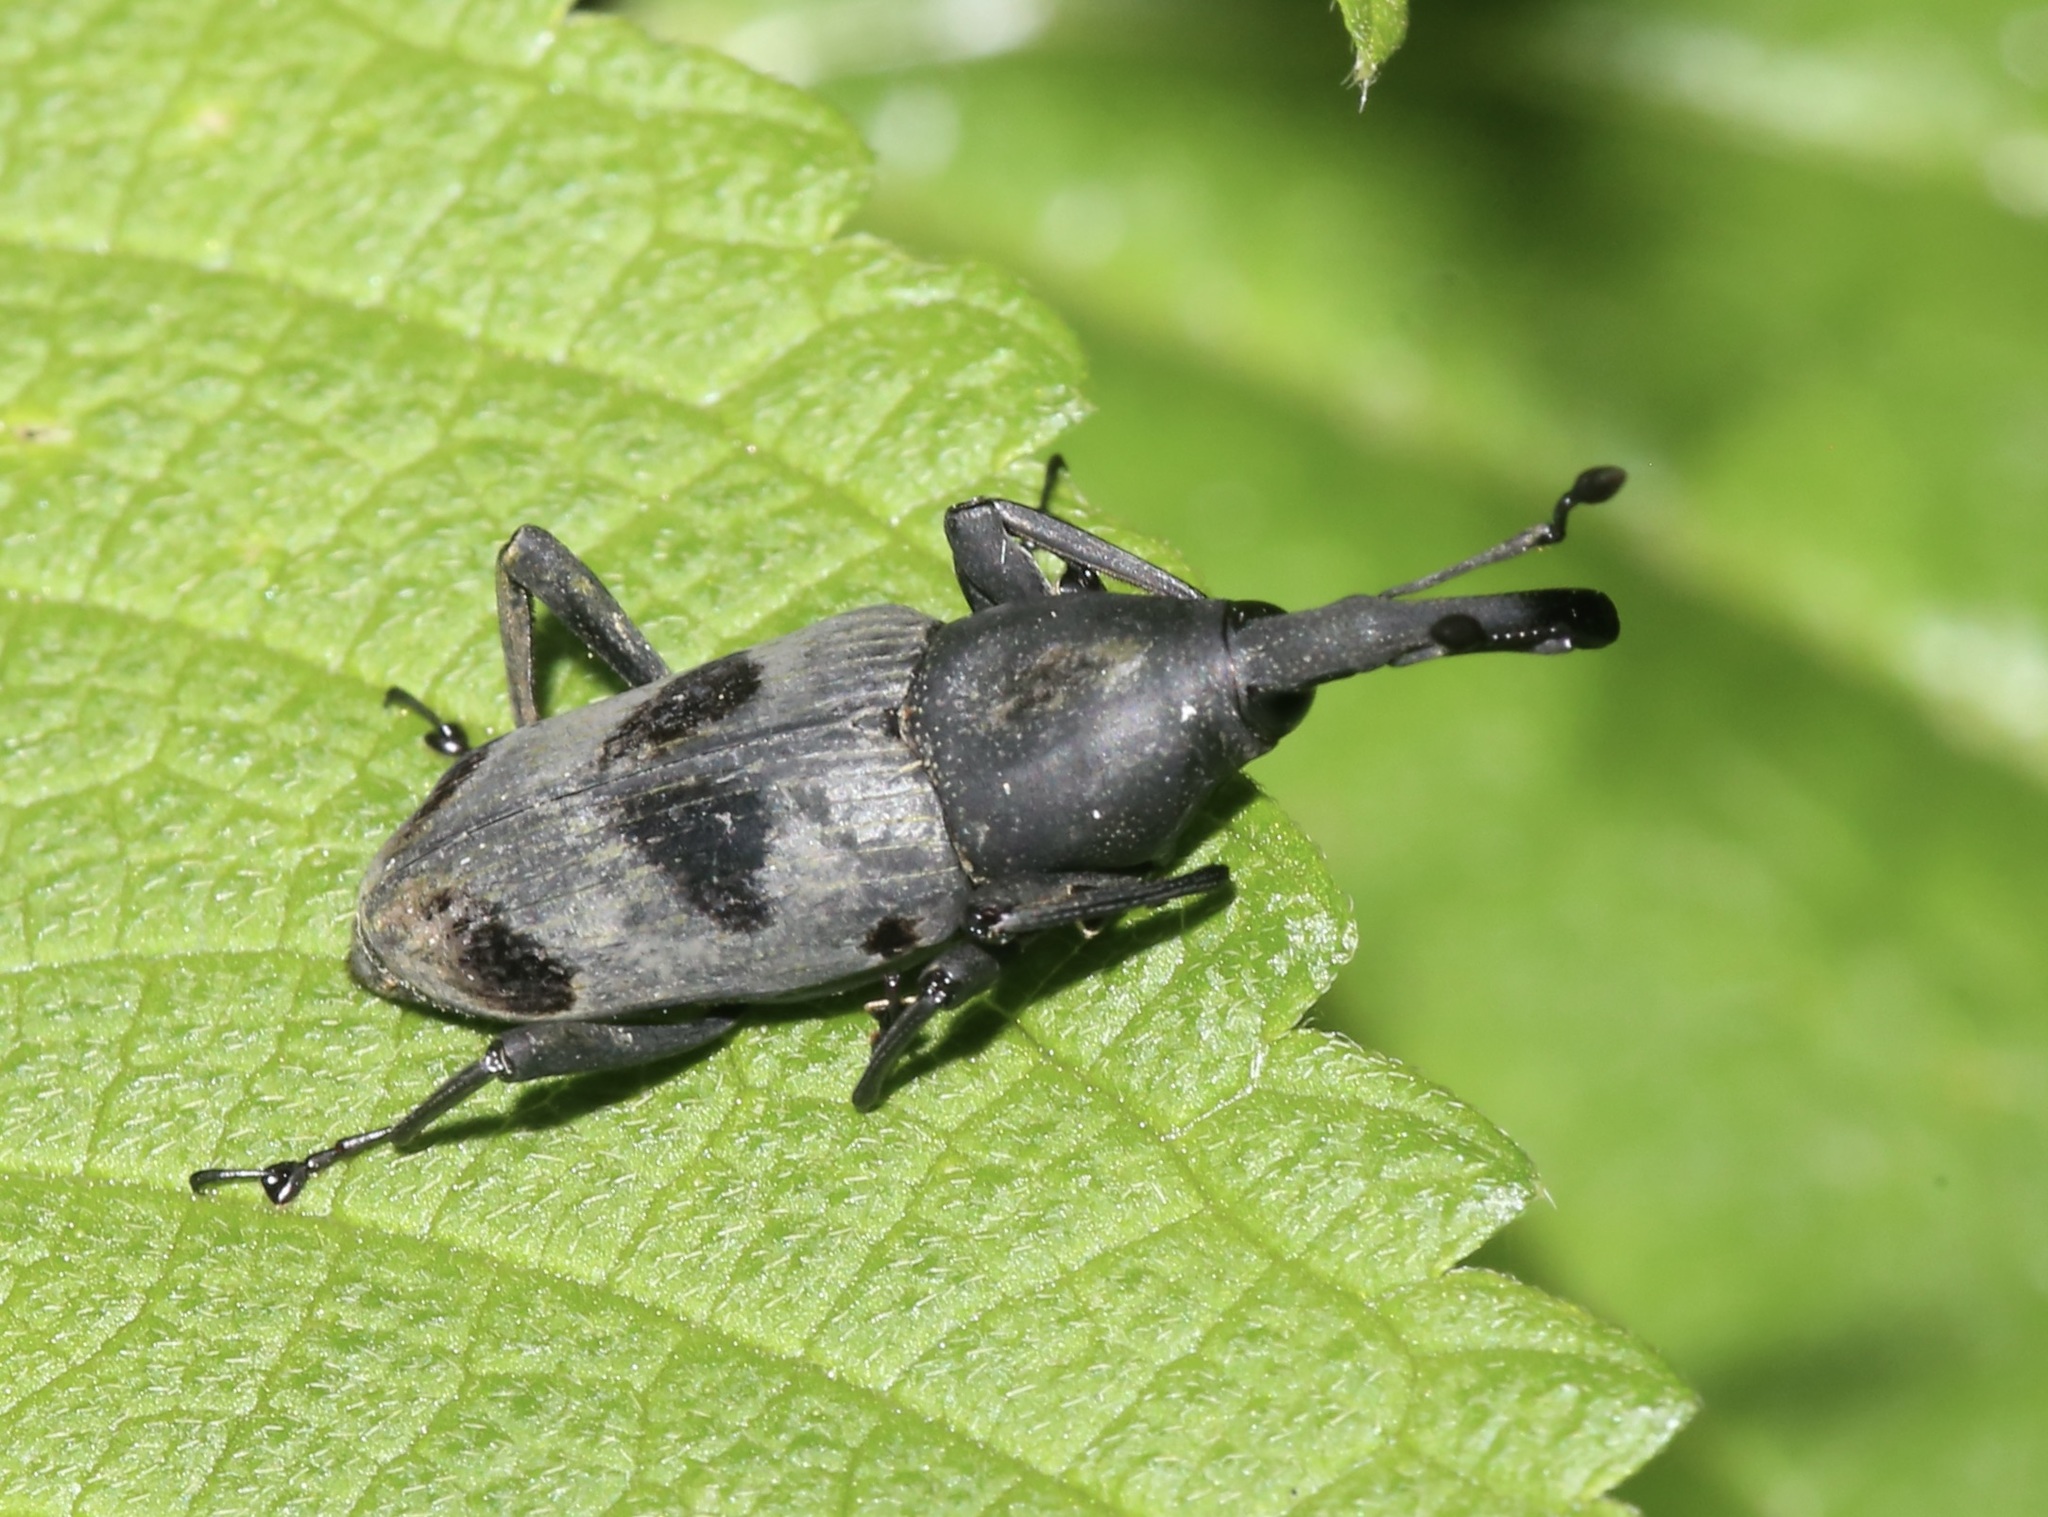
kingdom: Animalia
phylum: Arthropoda
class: Insecta
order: Coleoptera
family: Dryophthoridae
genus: Rhodobaenus
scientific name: Rhodobaenus nawradii
